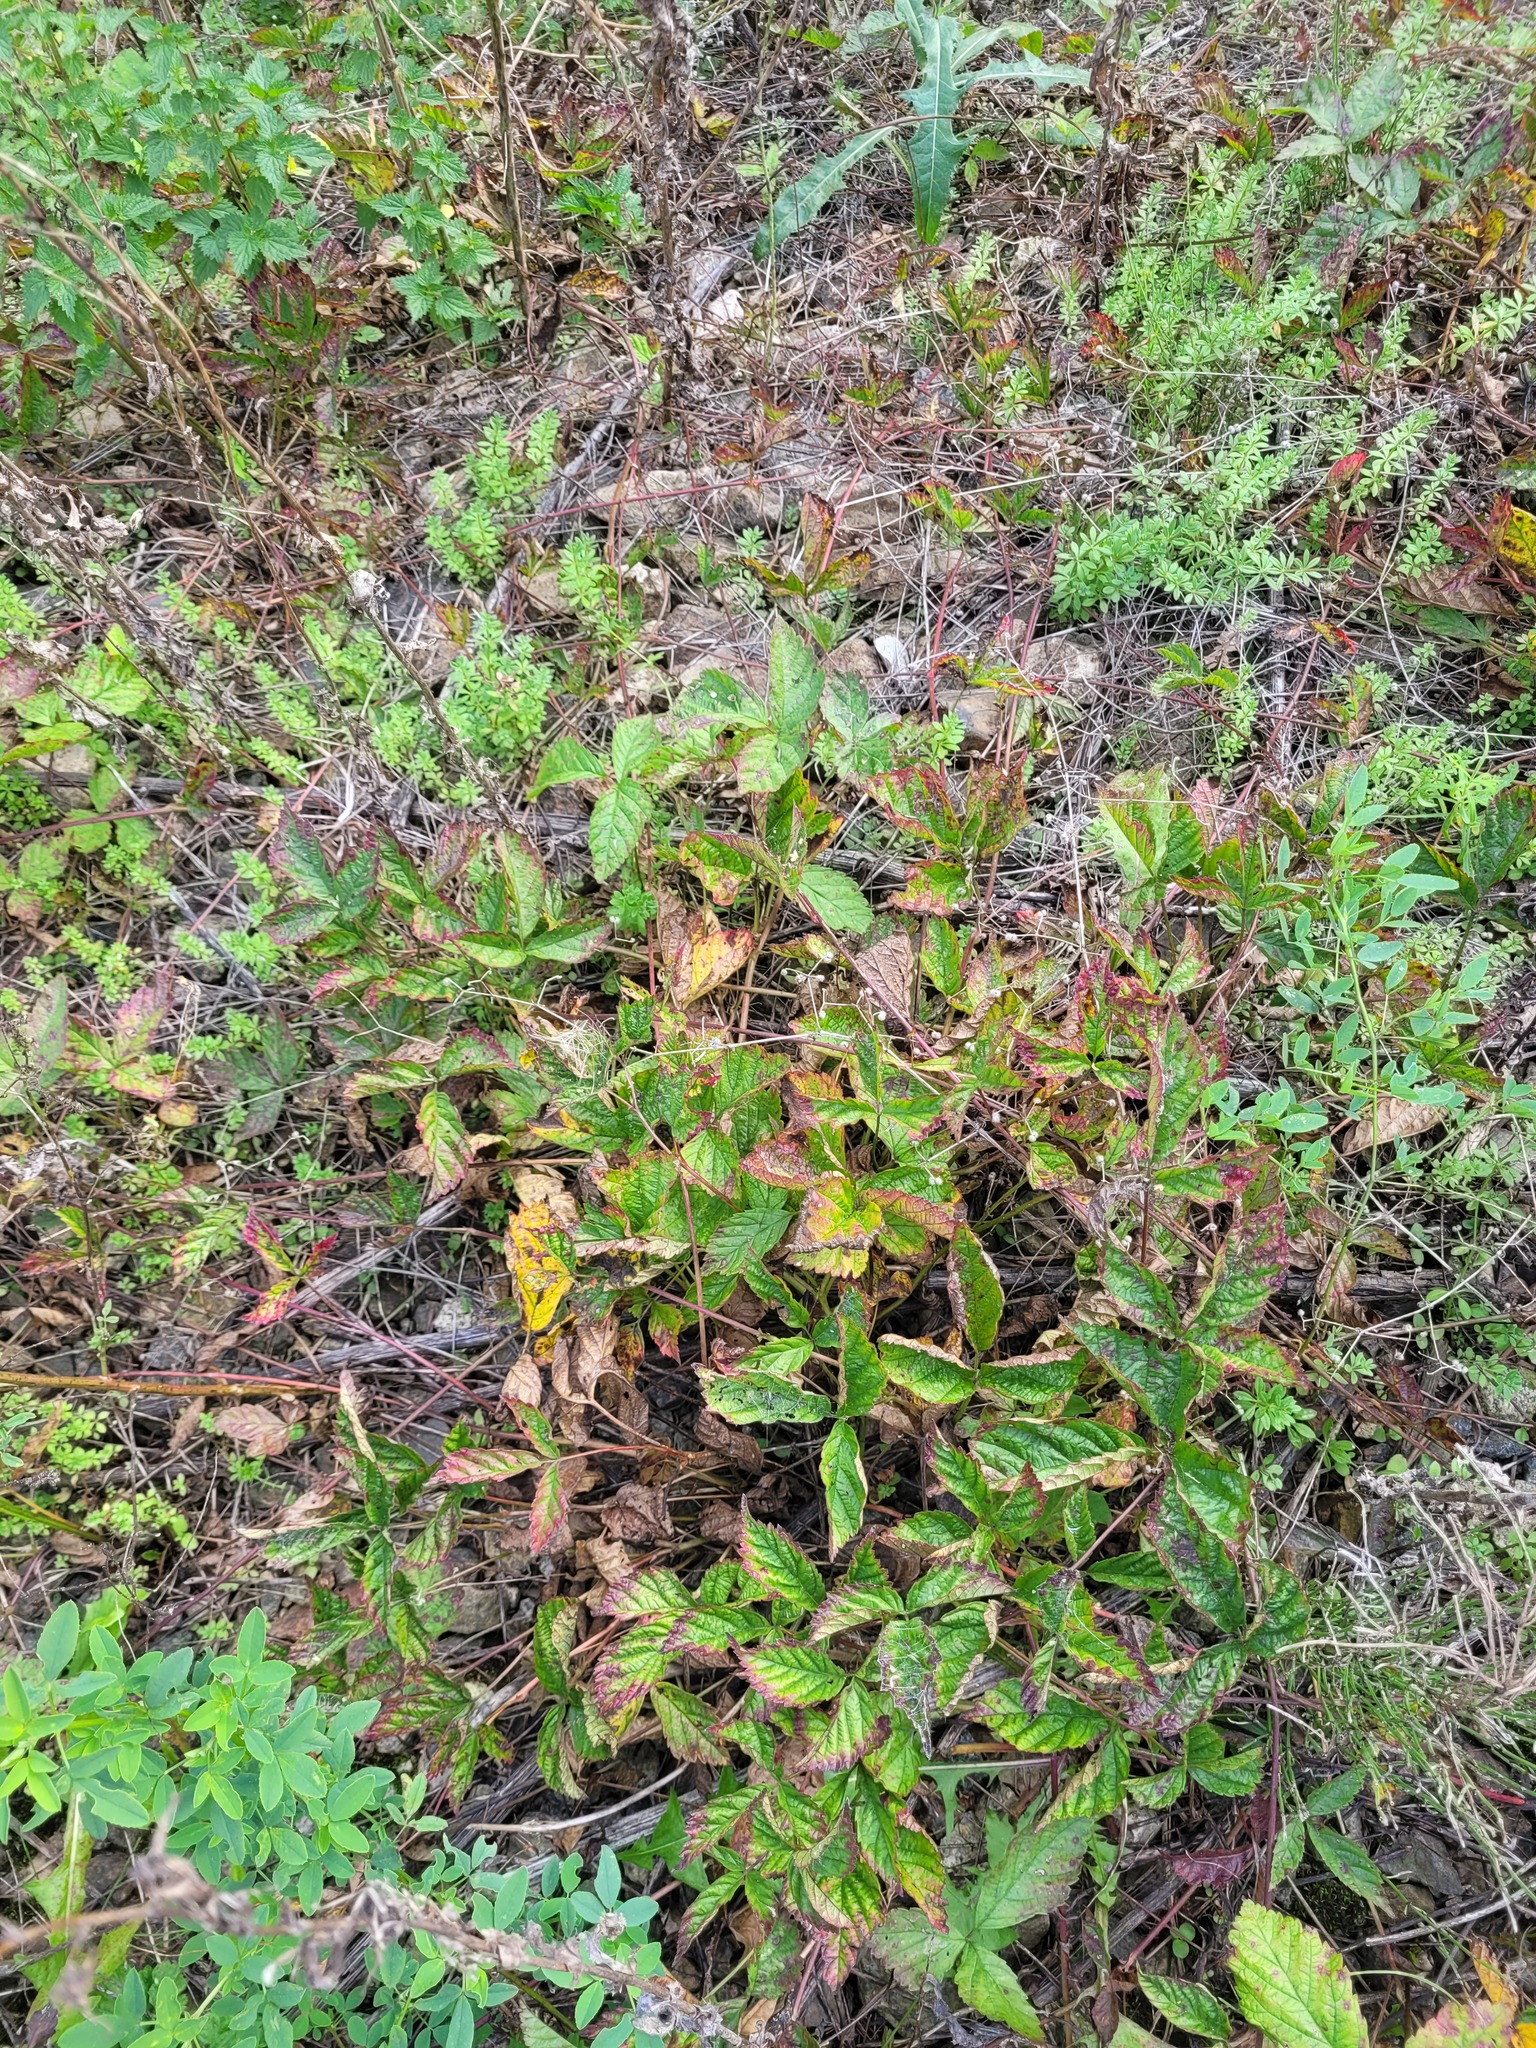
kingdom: Plantae
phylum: Tracheophyta
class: Magnoliopsida
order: Rosales
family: Rosaceae
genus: Rubus
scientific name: Rubus saxatilis
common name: Stone bramble
